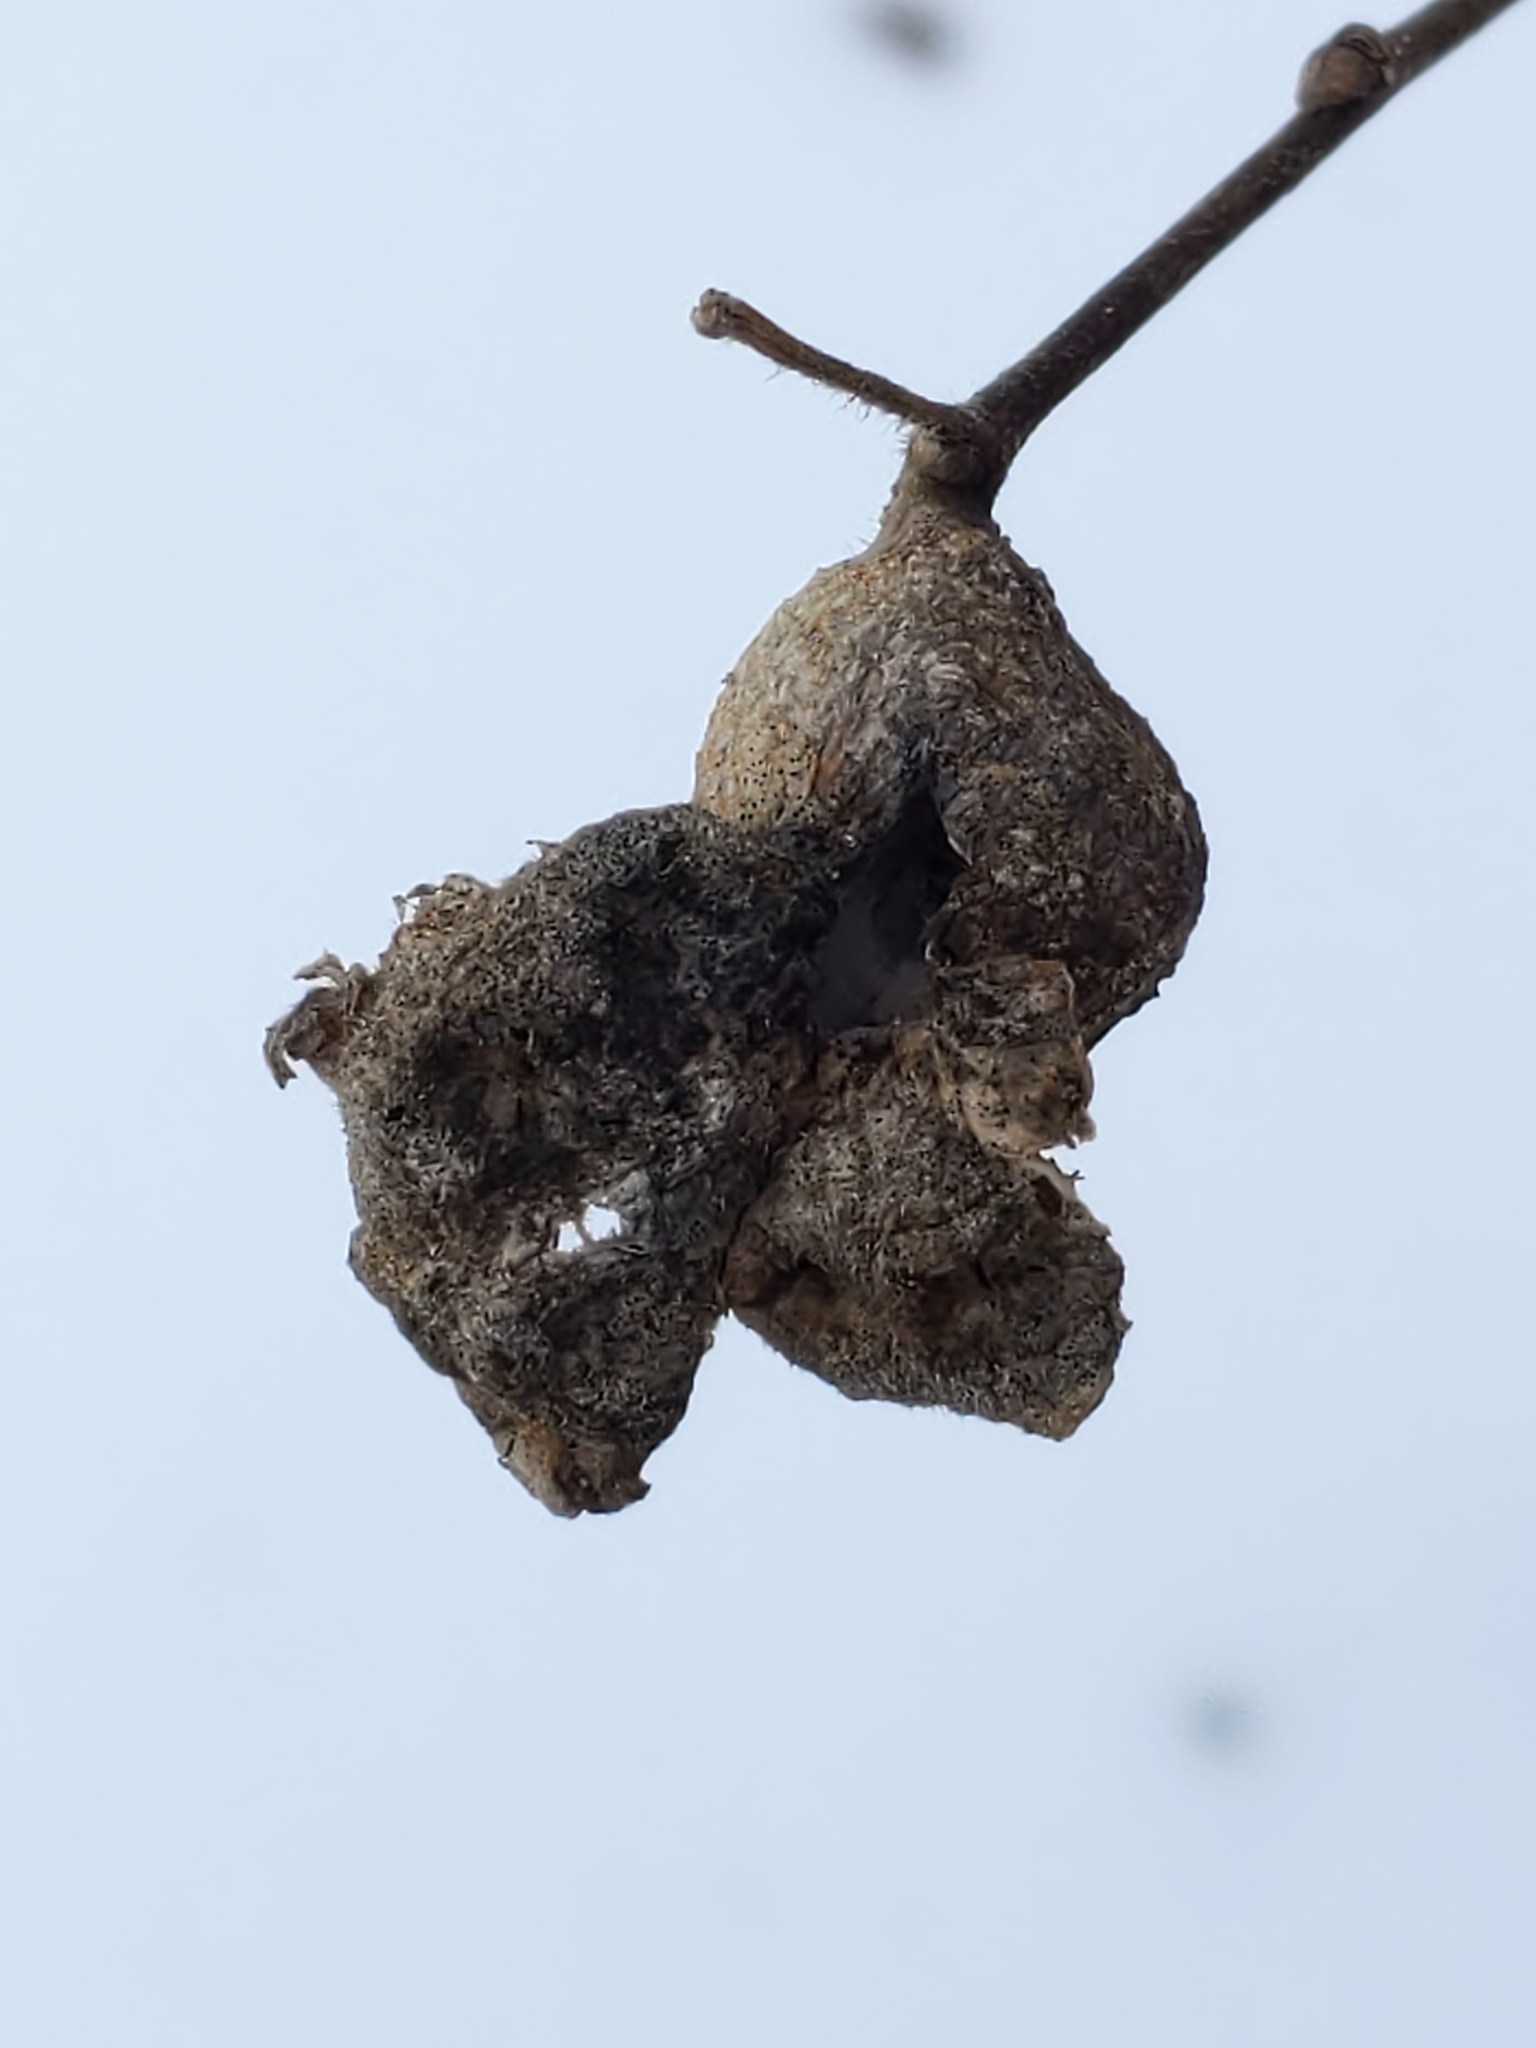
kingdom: Animalia
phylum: Arthropoda
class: Insecta
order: Hemiptera
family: Aphalaridae
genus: Pachypsylla
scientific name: Pachypsylla venusta
